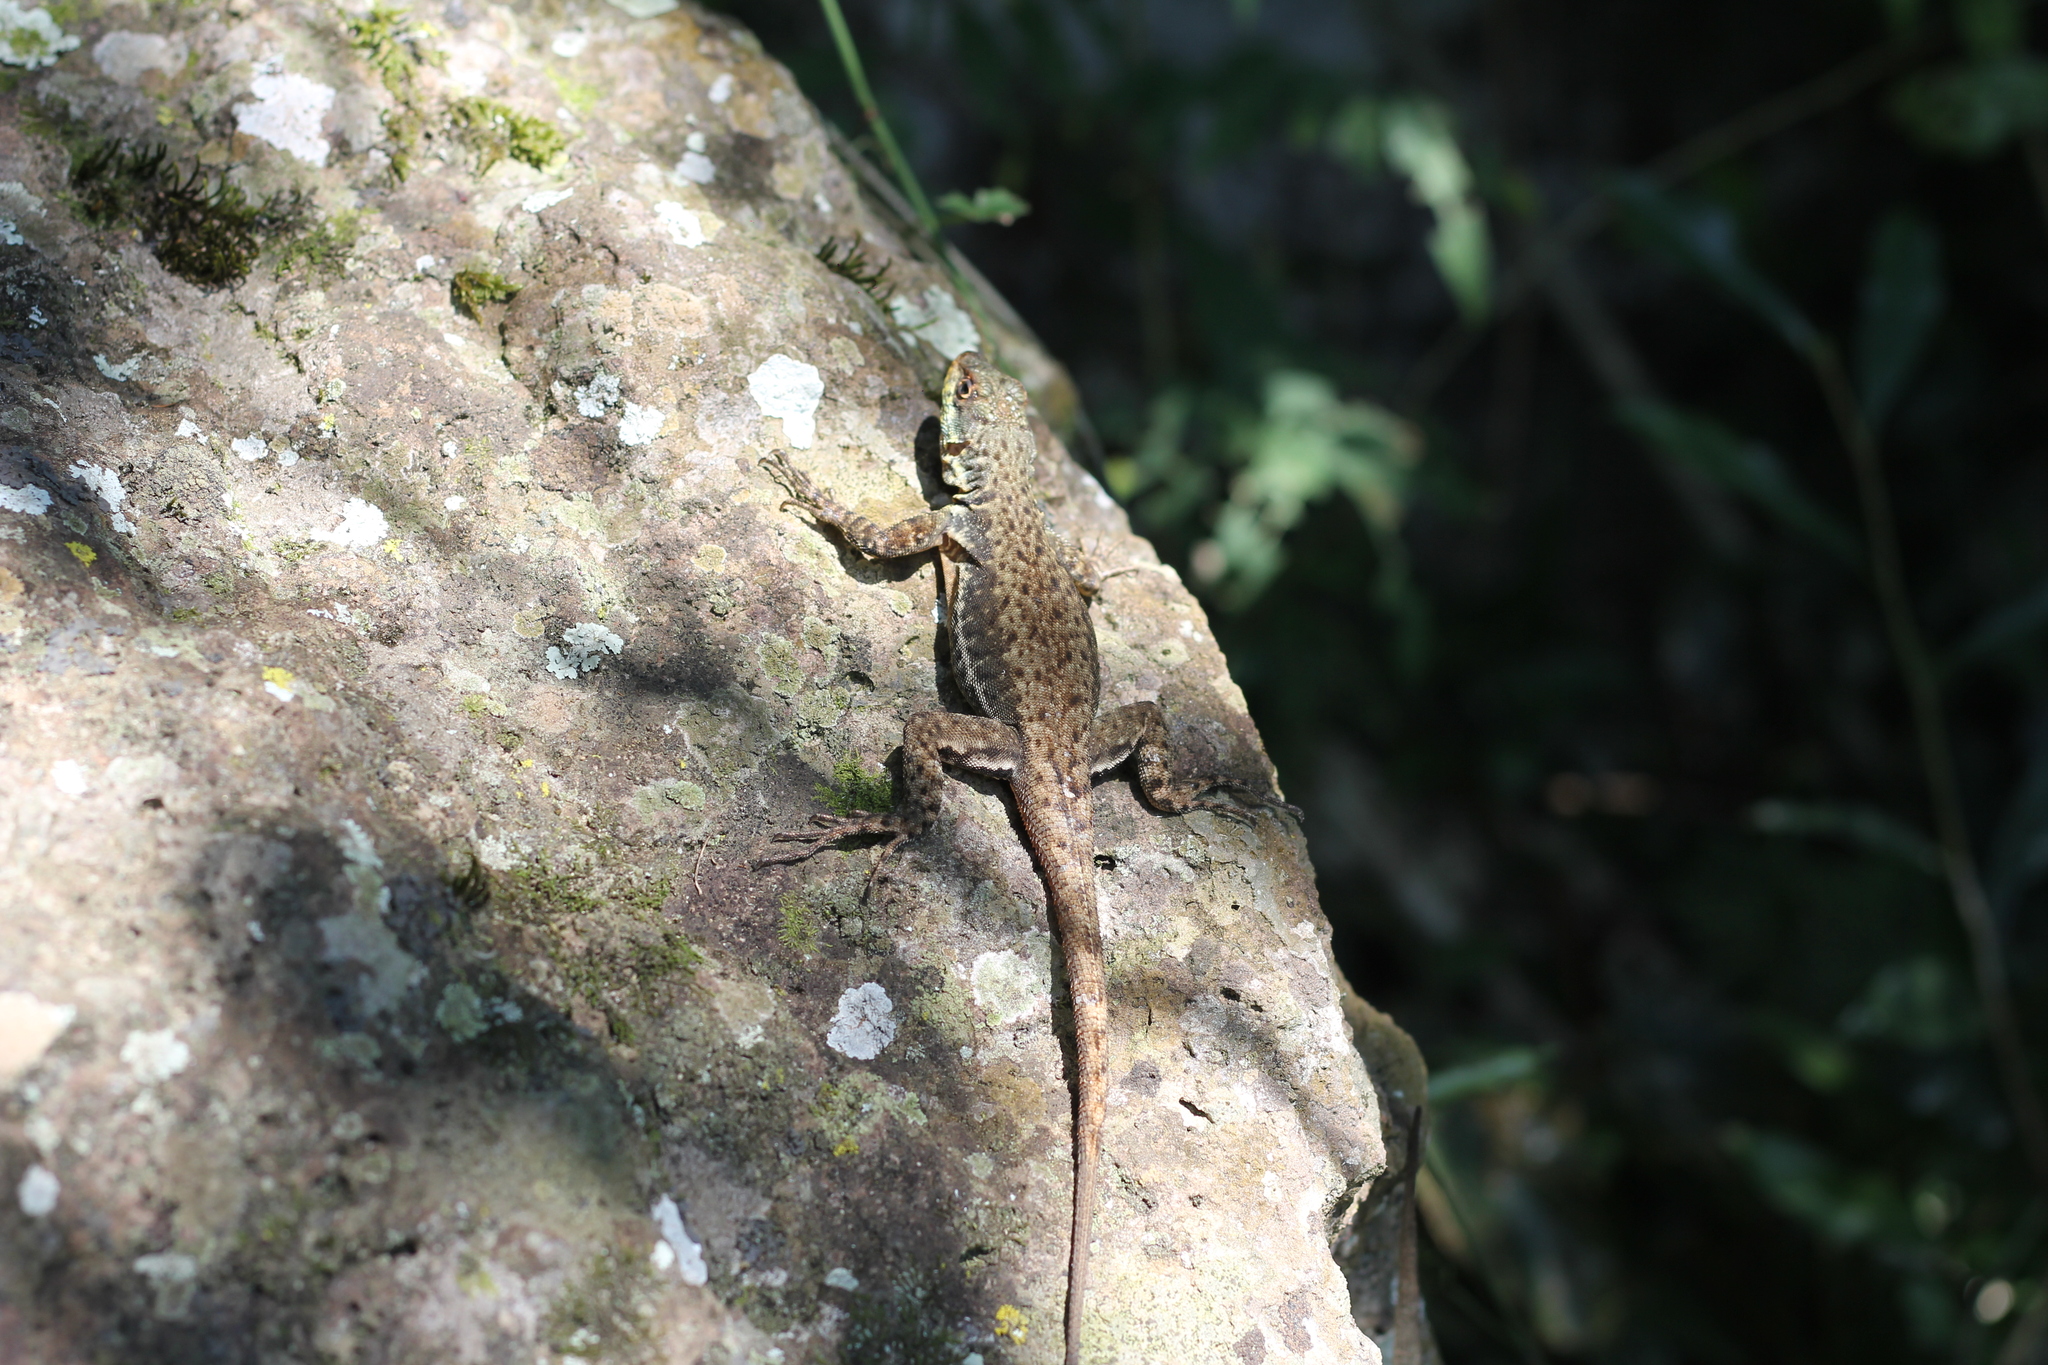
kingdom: Animalia
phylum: Chordata
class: Squamata
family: Tropiduridae
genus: Tropidurus
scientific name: Tropidurus catalanensis
